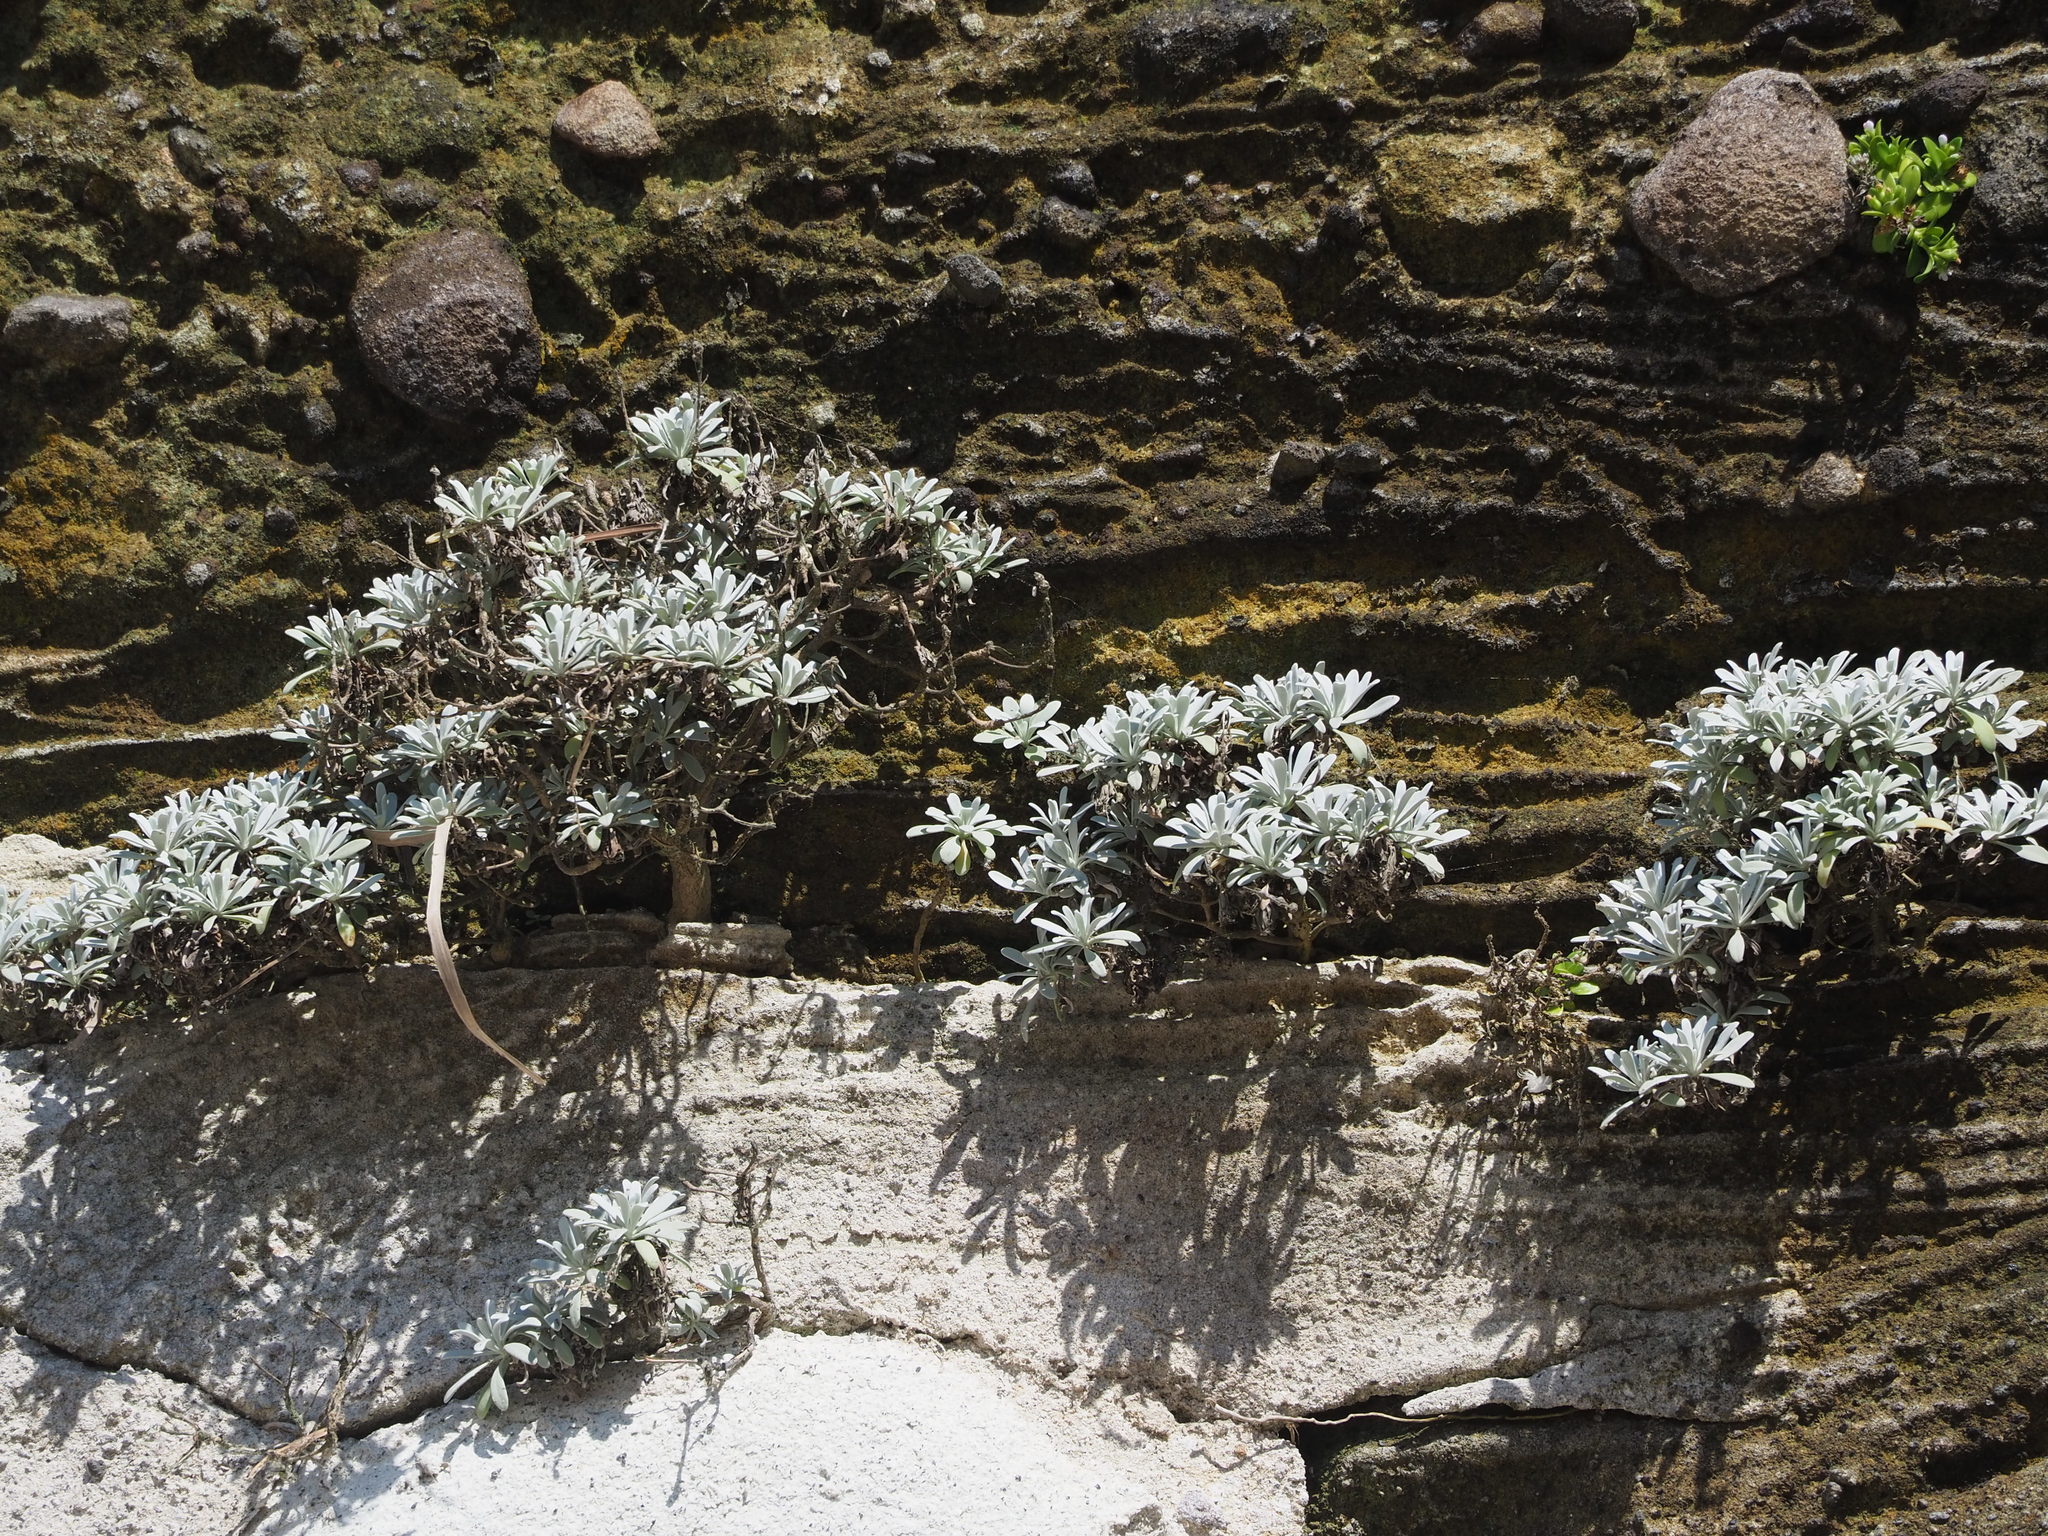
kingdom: Plantae
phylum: Tracheophyta
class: Magnoliopsida
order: Asterales
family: Asteraceae
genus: Crossostephium
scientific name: Crossostephium chinense
